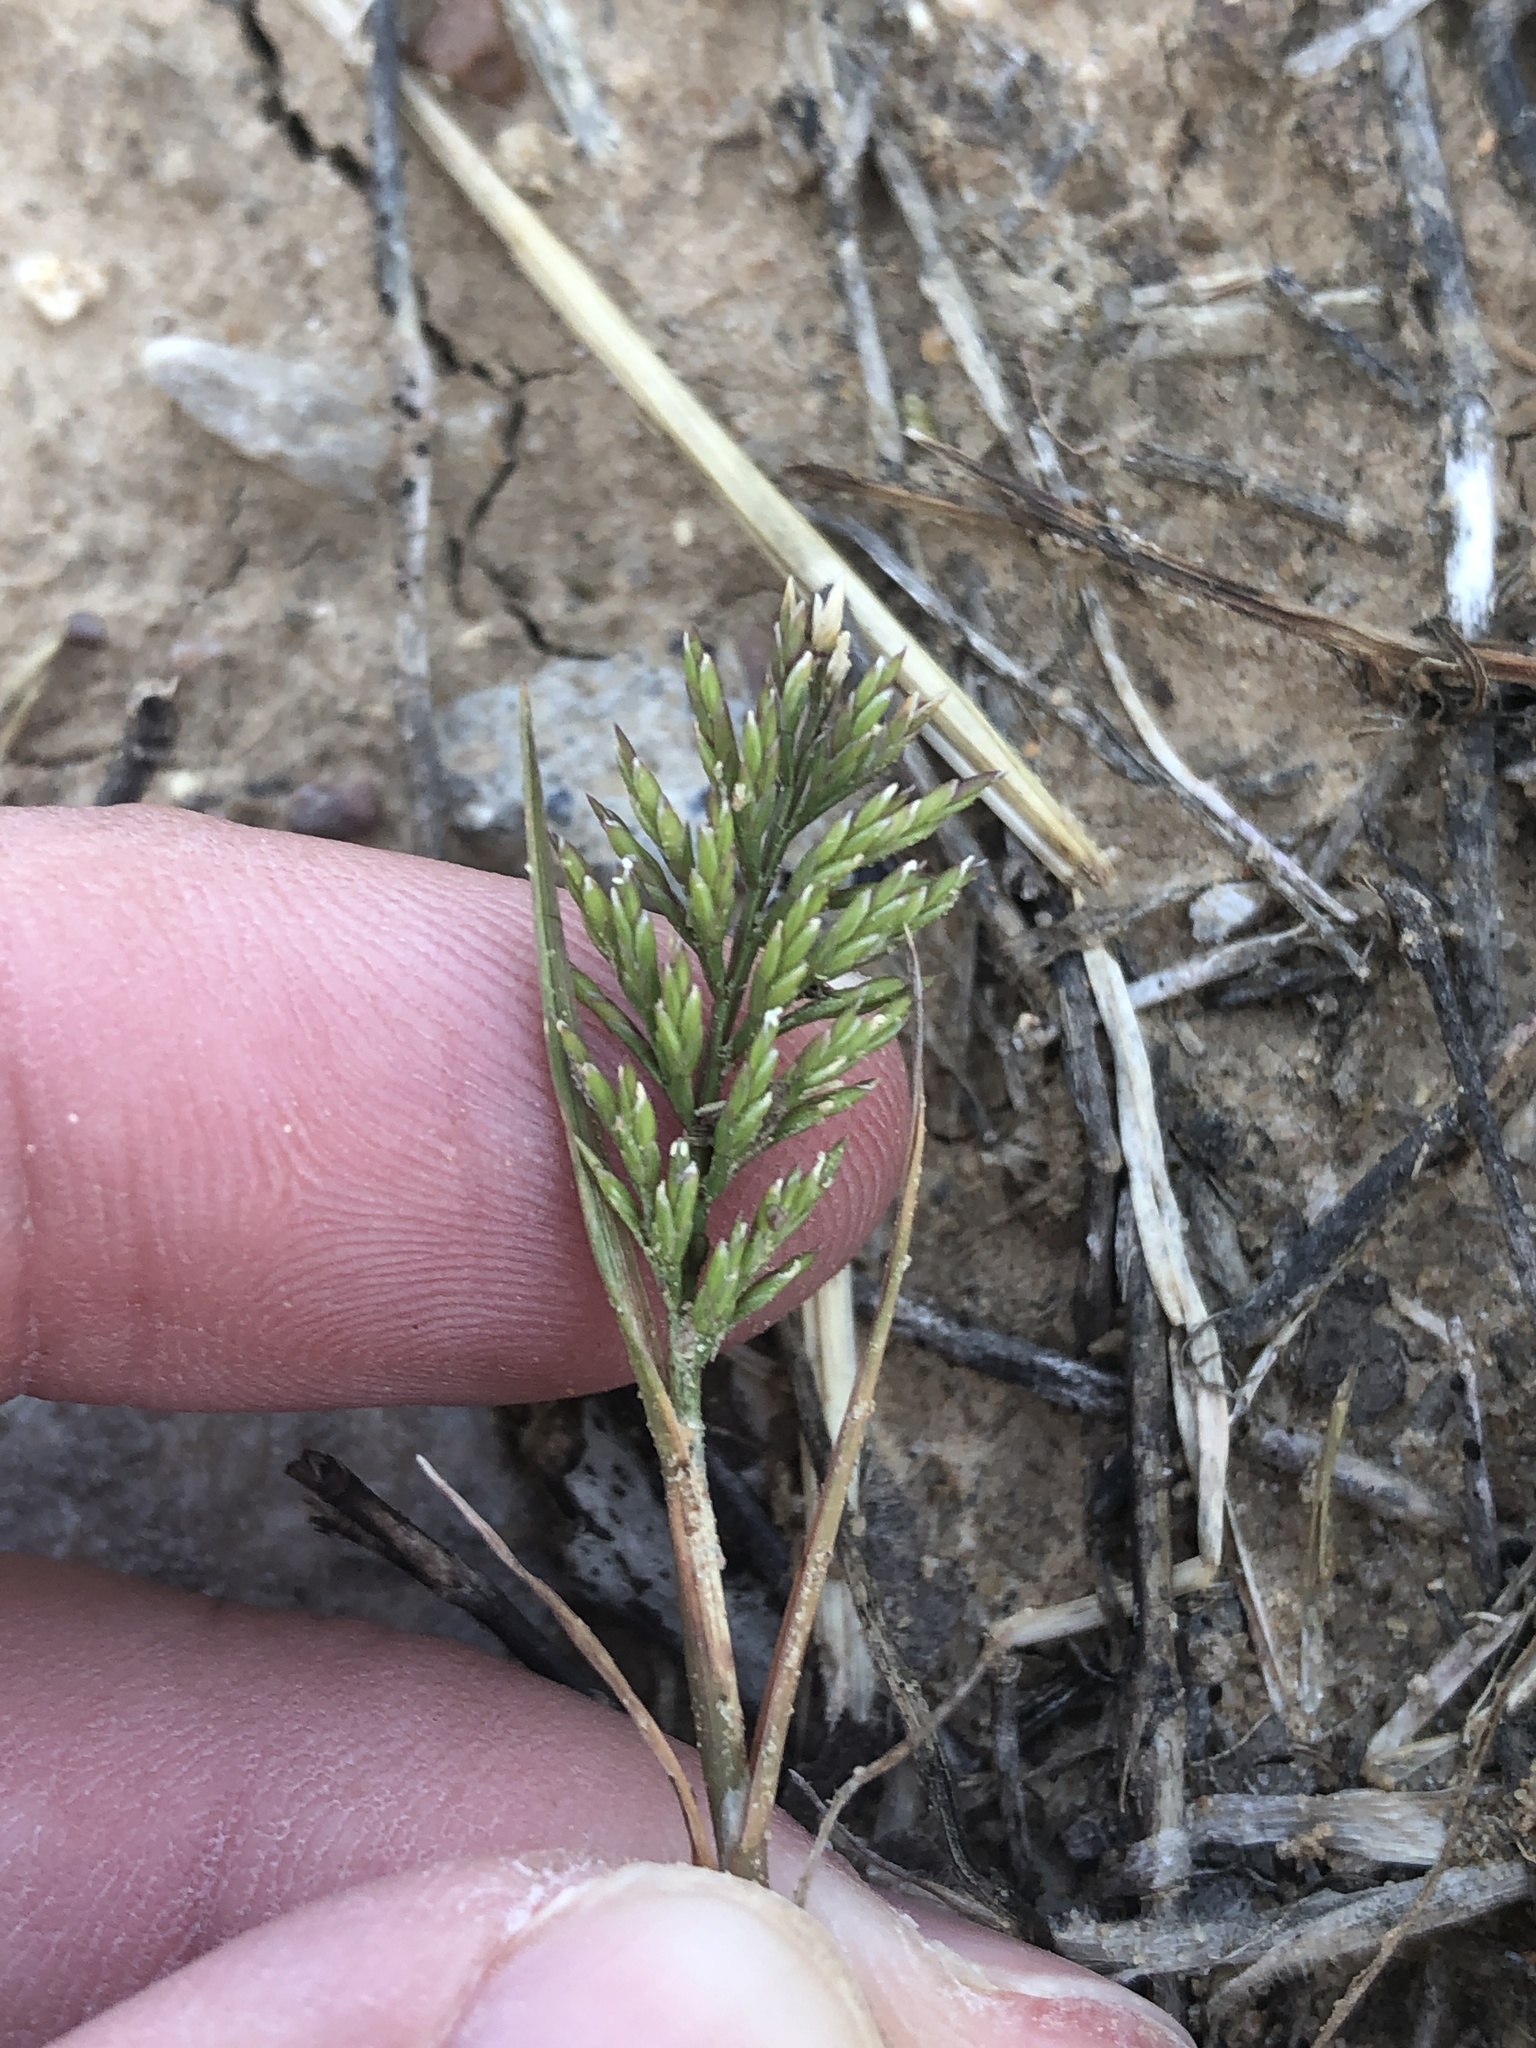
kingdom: Plantae
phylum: Tracheophyta
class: Liliopsida
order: Poales
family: Poaceae
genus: Catapodium
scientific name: Catapodium rigidum
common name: Fern-grass
